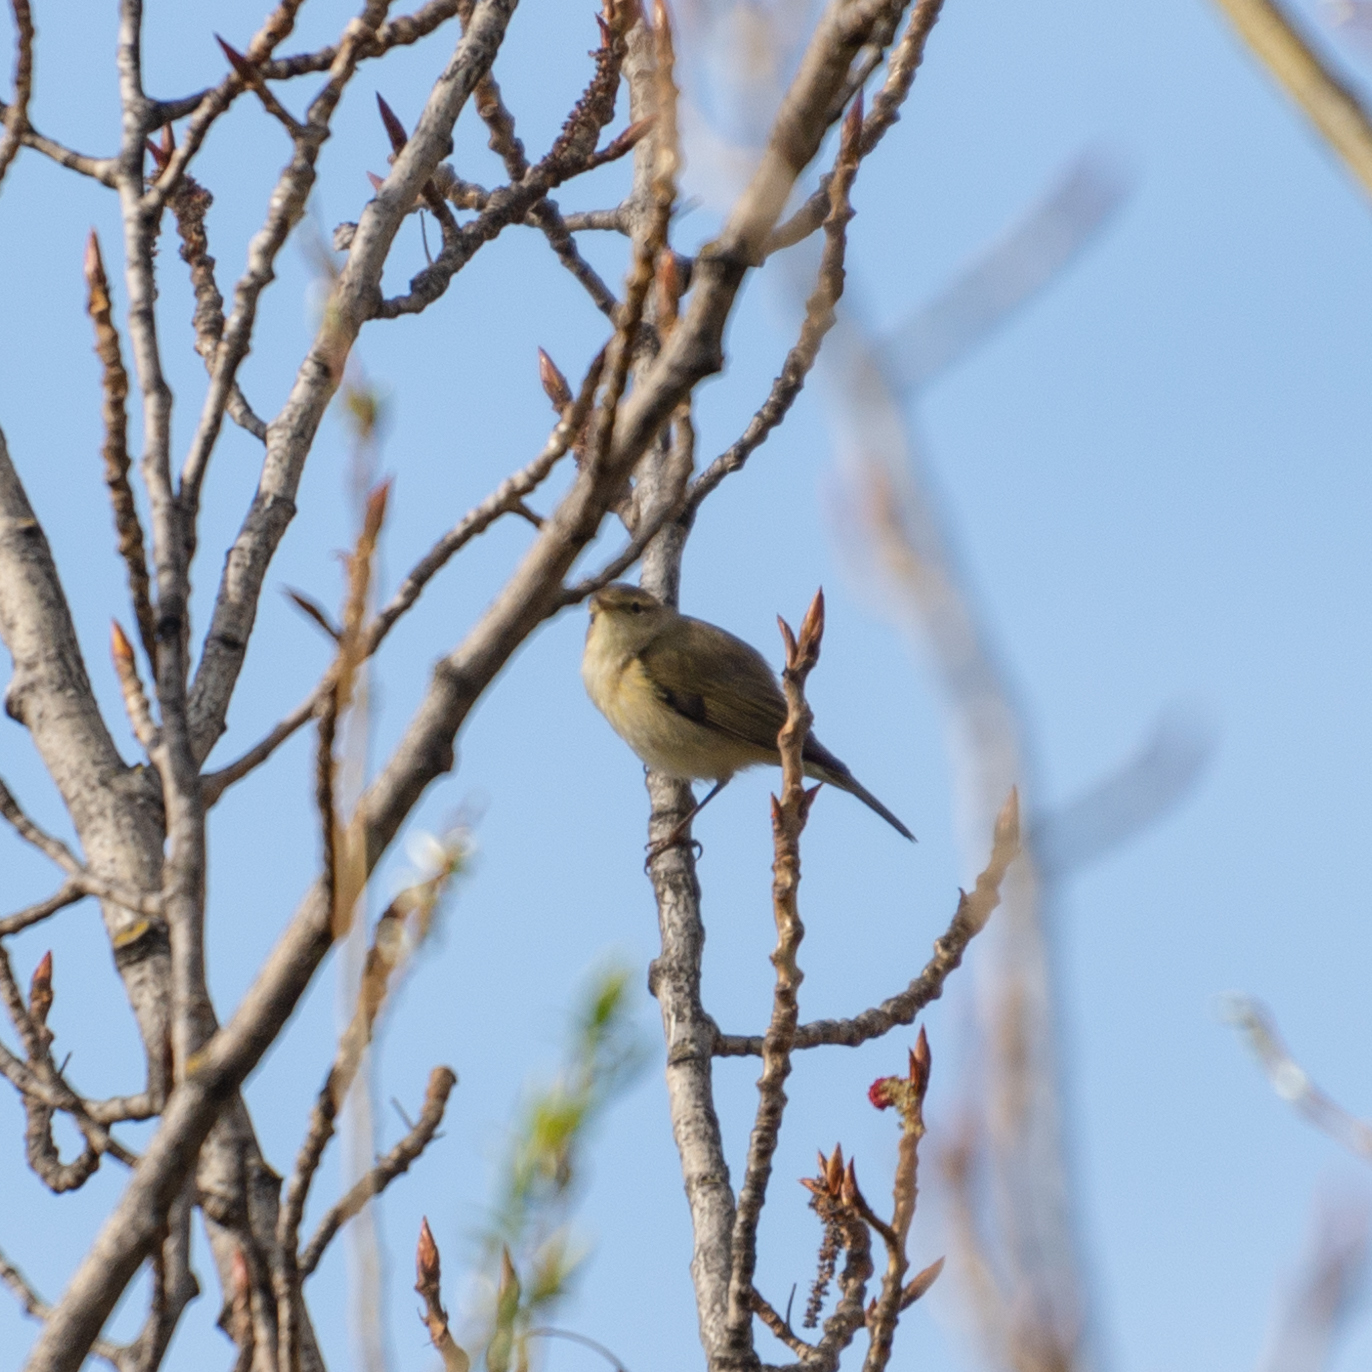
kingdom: Animalia
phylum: Chordata
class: Aves
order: Passeriformes
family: Phylloscopidae
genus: Phylloscopus
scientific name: Phylloscopus ibericus
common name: Iberian chiffchaff
